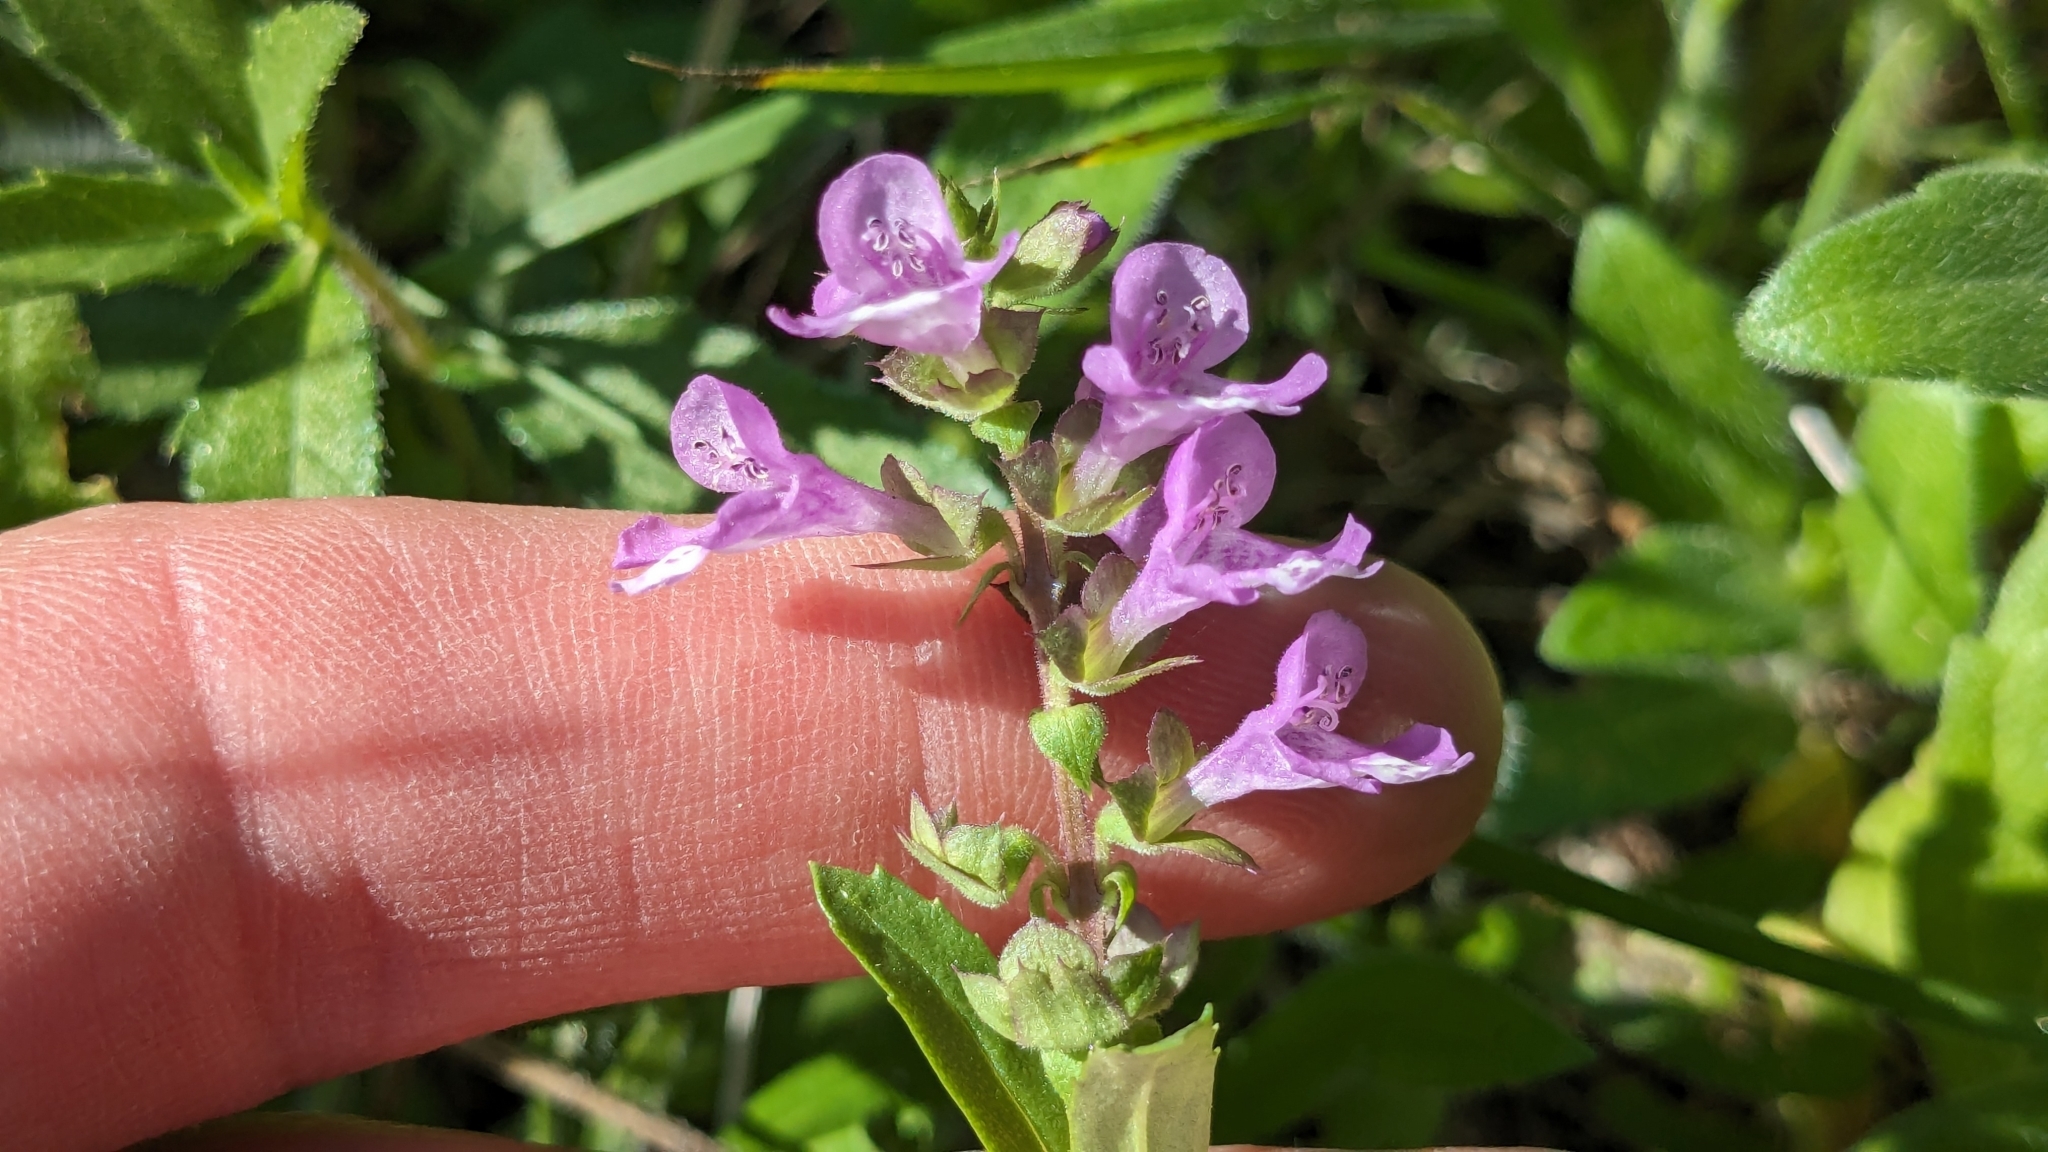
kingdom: Plantae
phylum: Tracheophyta
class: Magnoliopsida
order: Lamiales
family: Lamiaceae
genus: Warnockia
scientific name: Warnockia scutellarioides
